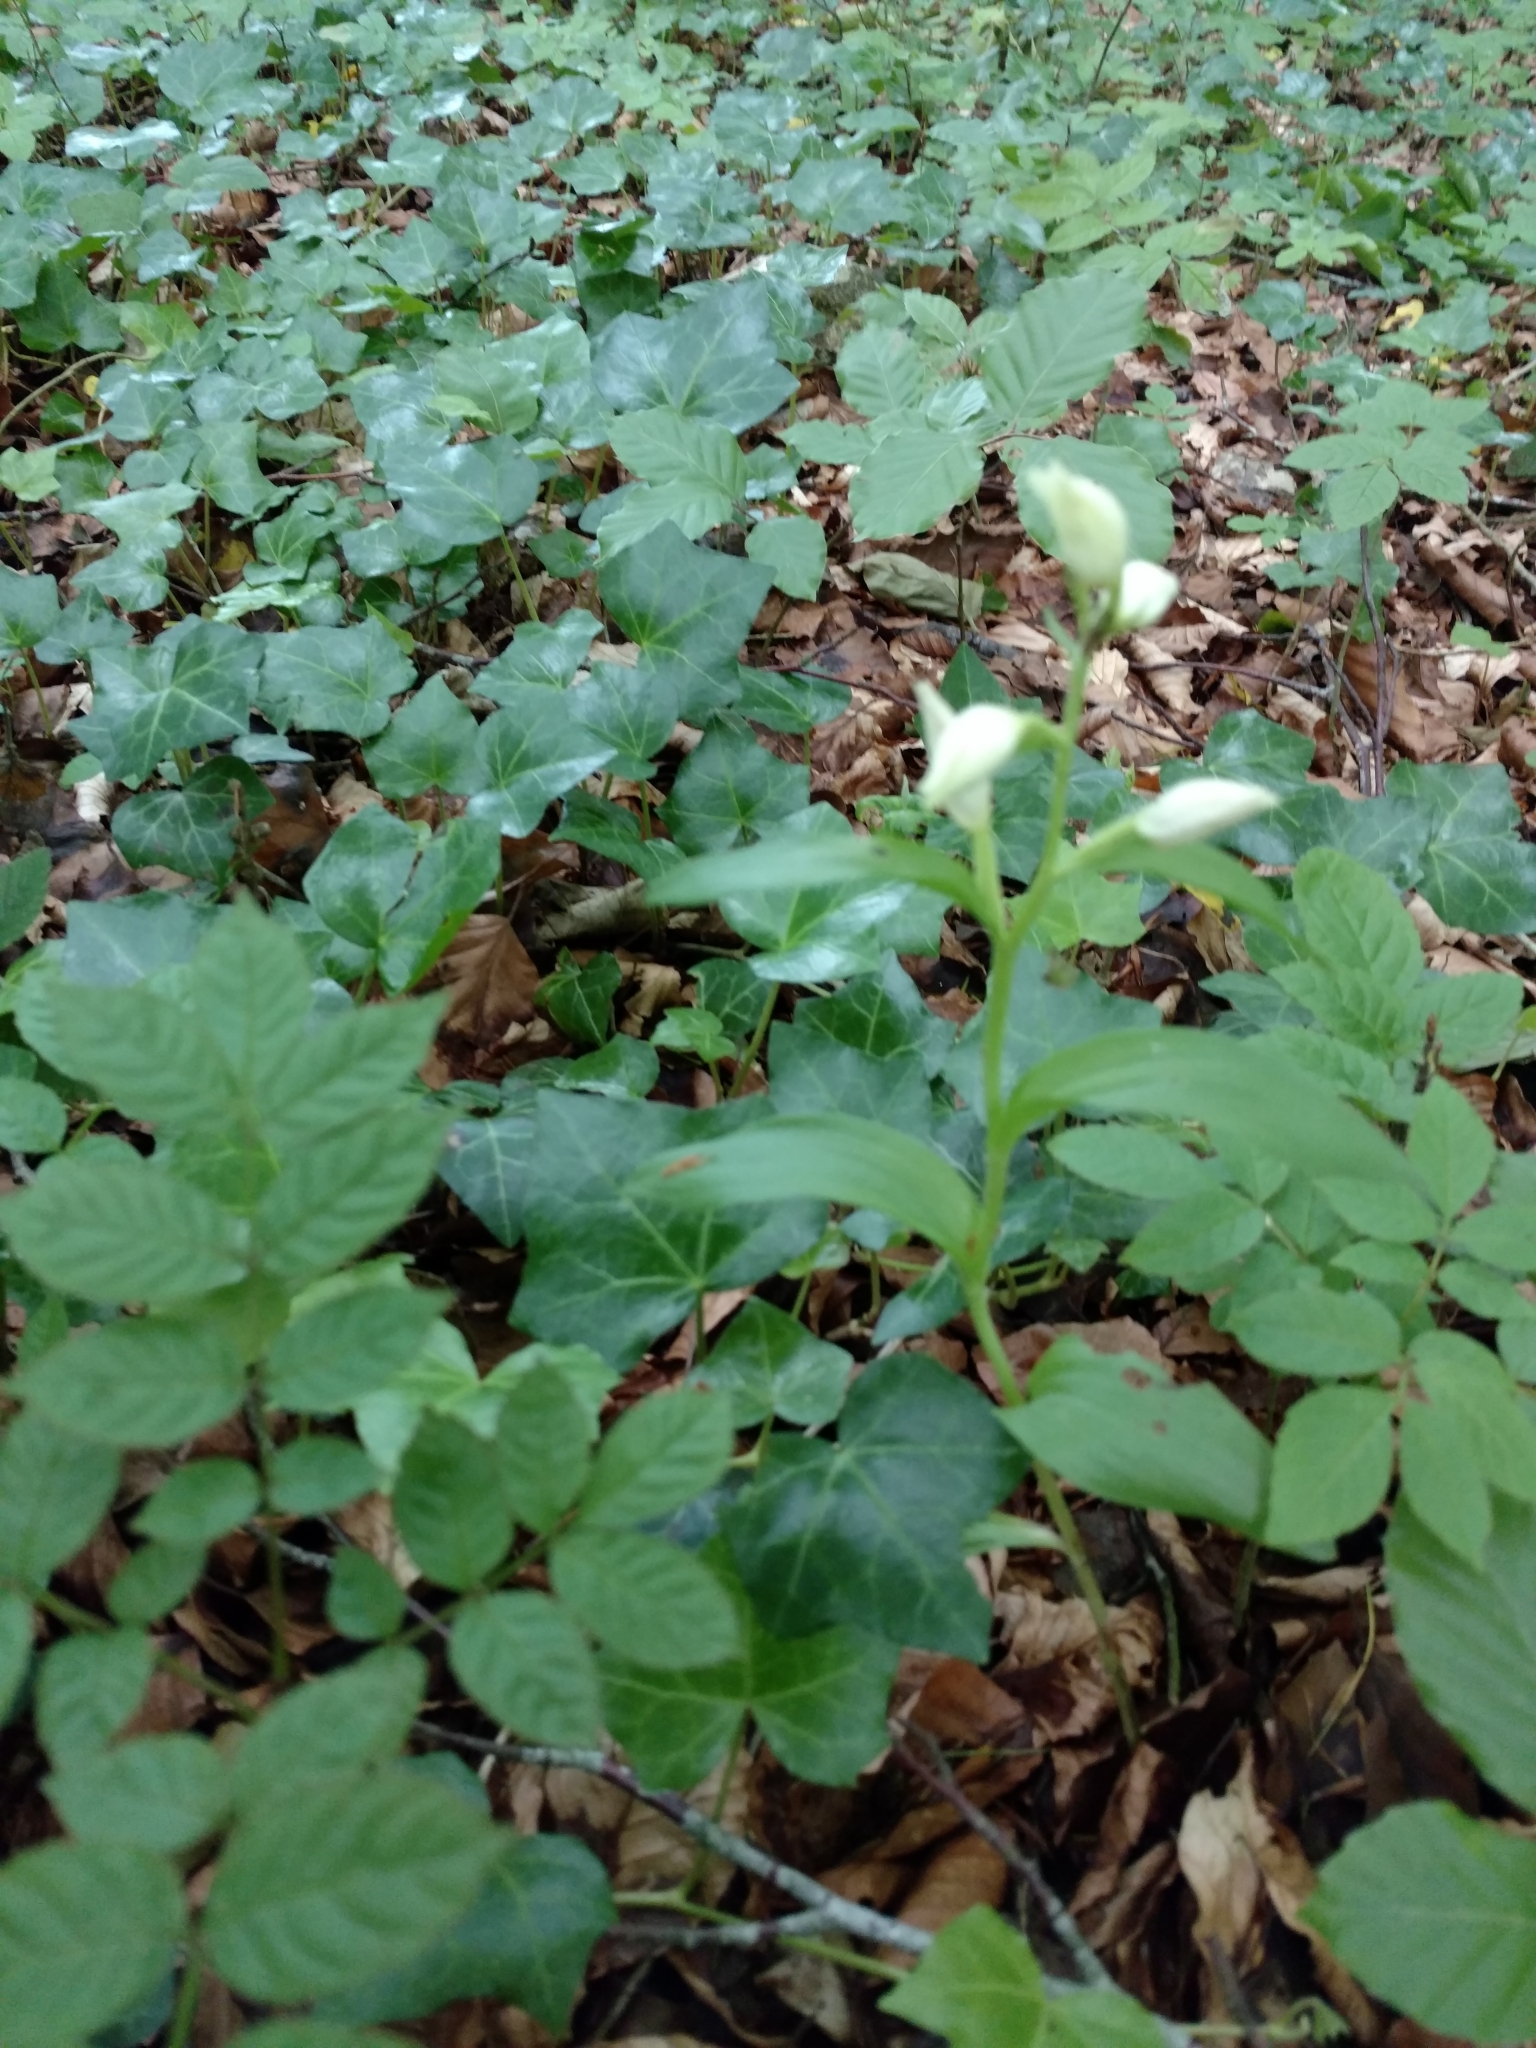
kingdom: Plantae
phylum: Tracheophyta
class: Liliopsida
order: Asparagales
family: Orchidaceae
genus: Cephalanthera
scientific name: Cephalanthera damasonium
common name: White helleborine
